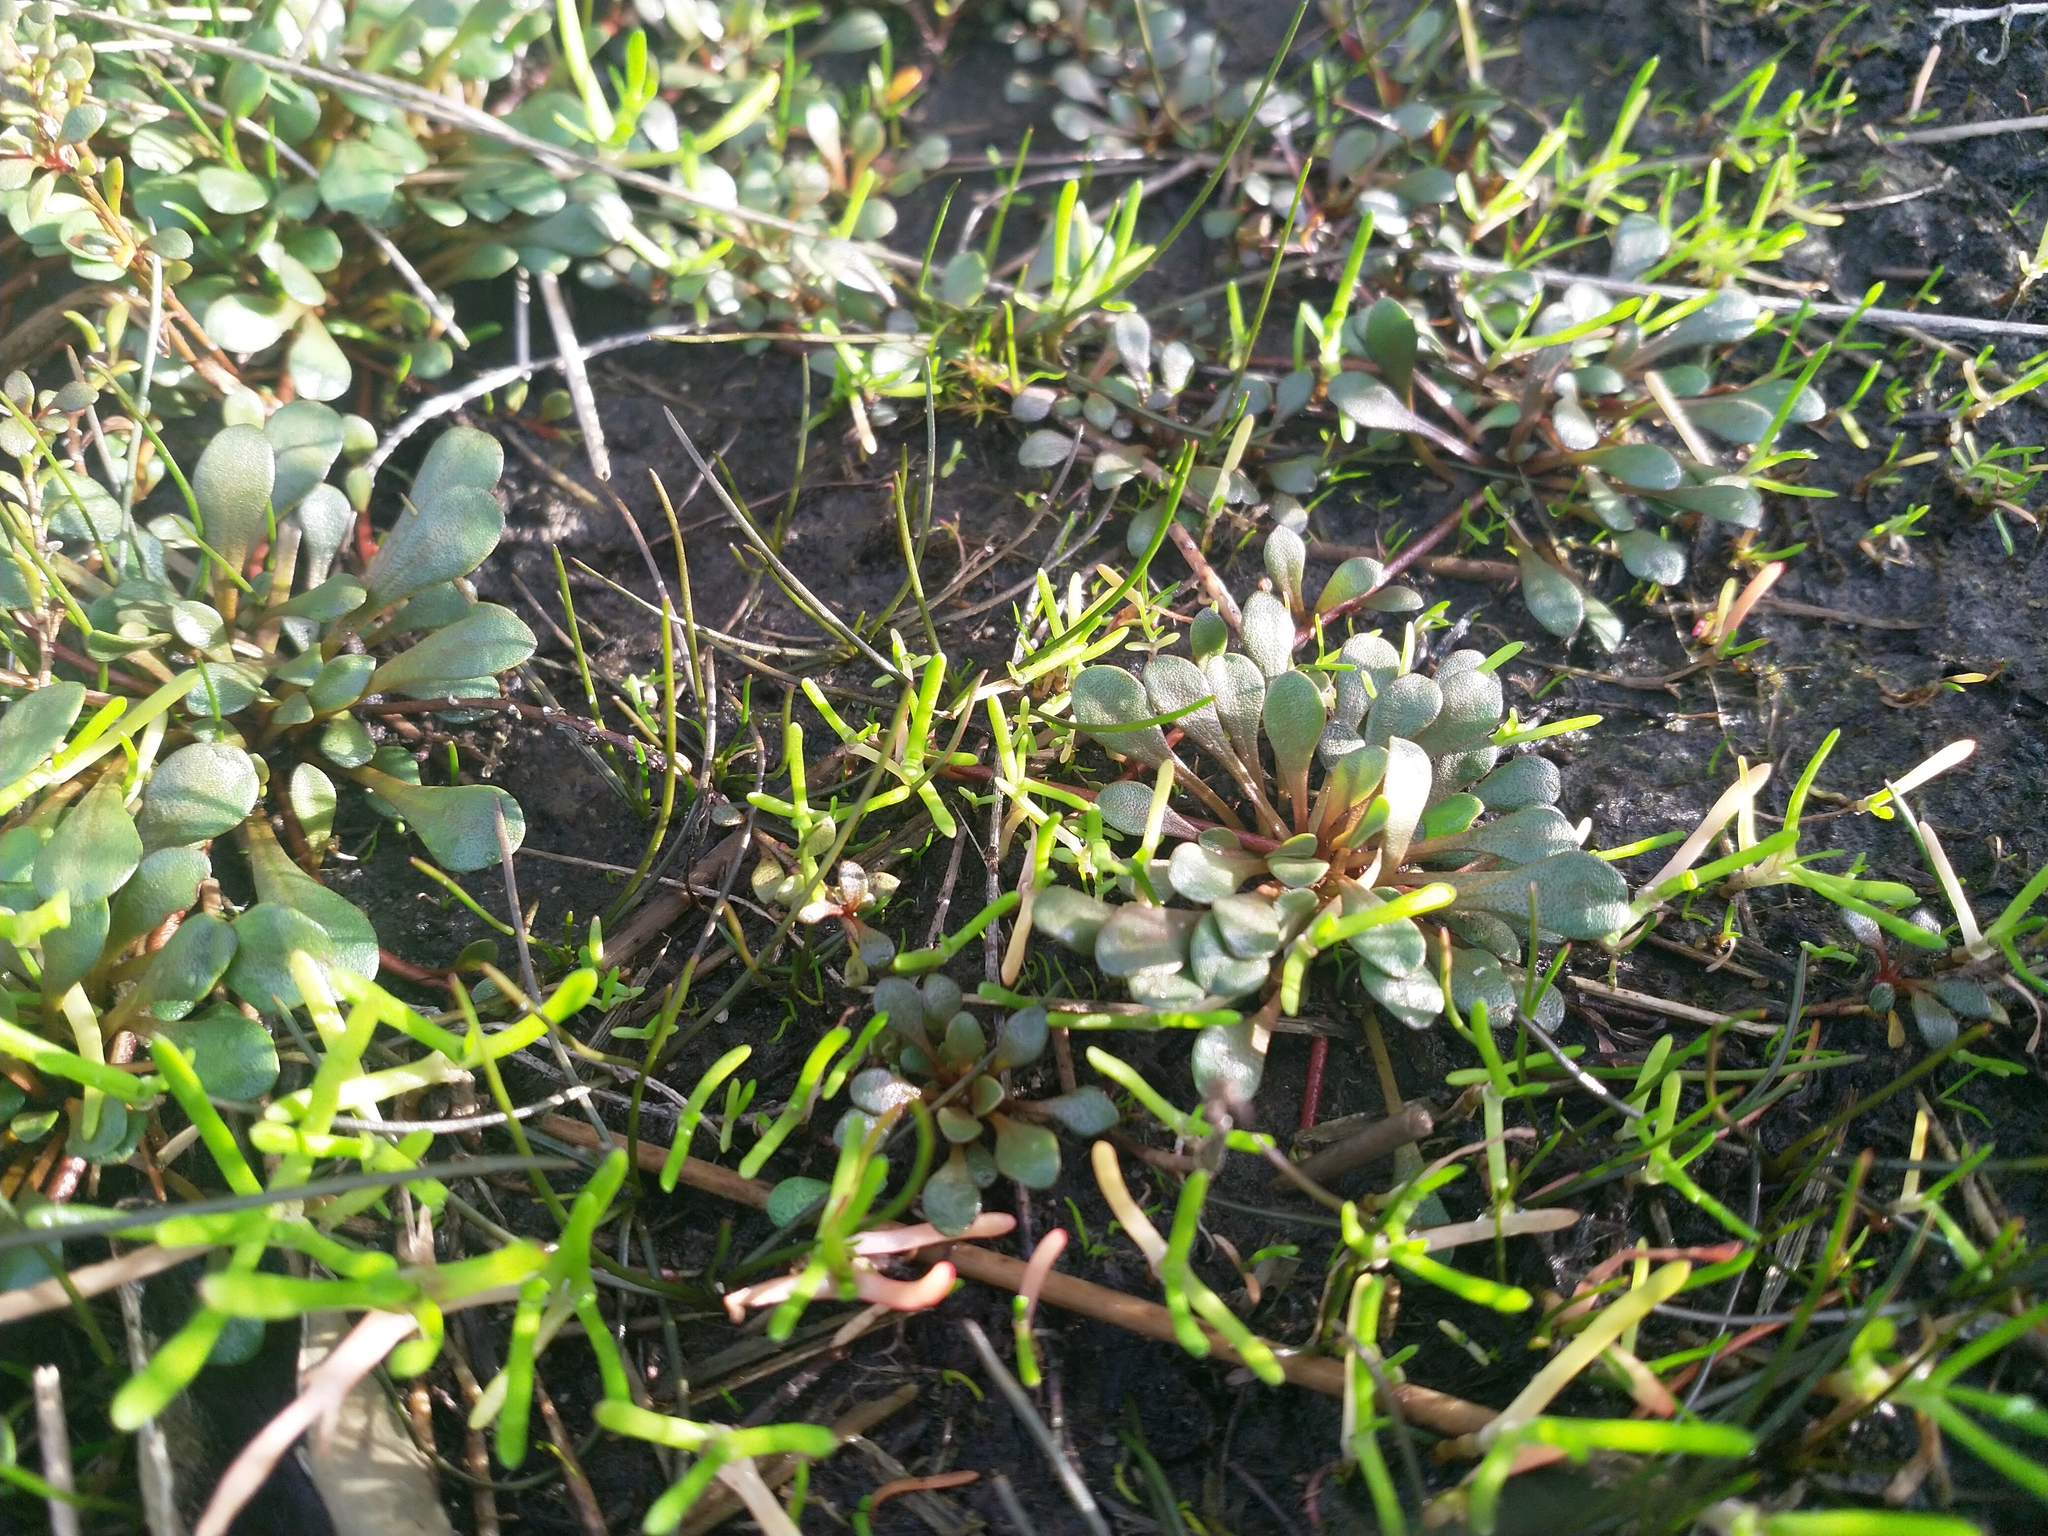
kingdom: Plantae
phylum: Tracheophyta
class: Magnoliopsida
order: Ericales
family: Primulaceae
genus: Samolus
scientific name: Samolus repens
